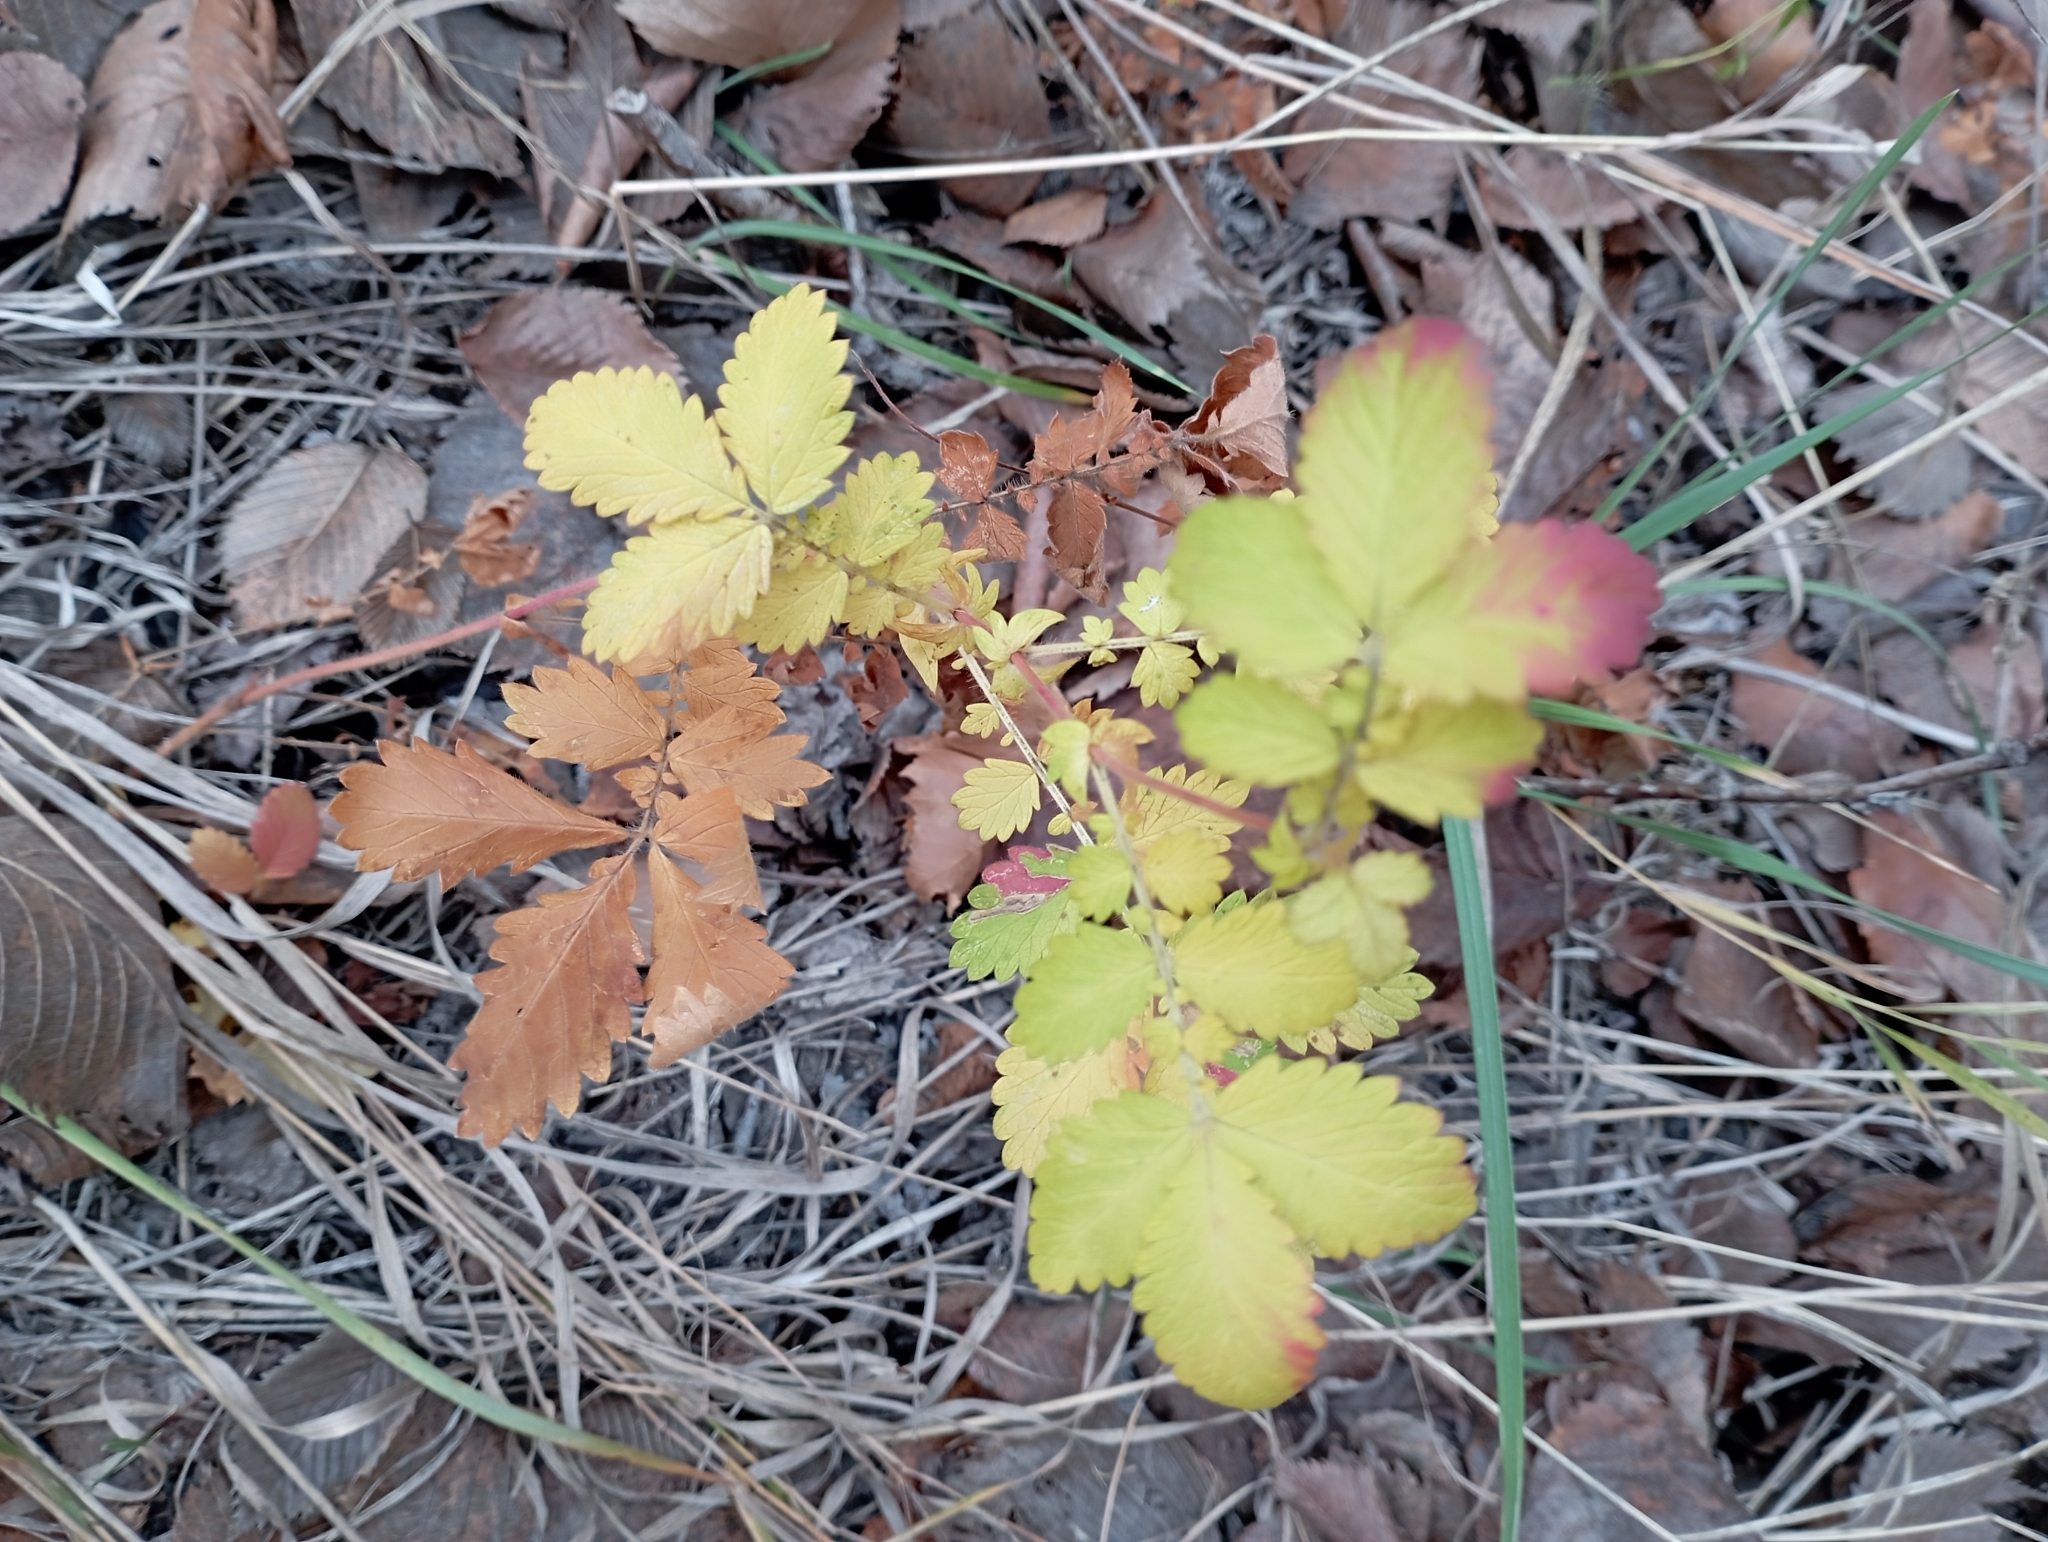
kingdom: Plantae
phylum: Tracheophyta
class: Magnoliopsida
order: Rosales
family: Rosaceae
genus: Agrimonia
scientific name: Agrimonia eupatoria
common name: Agrimony
